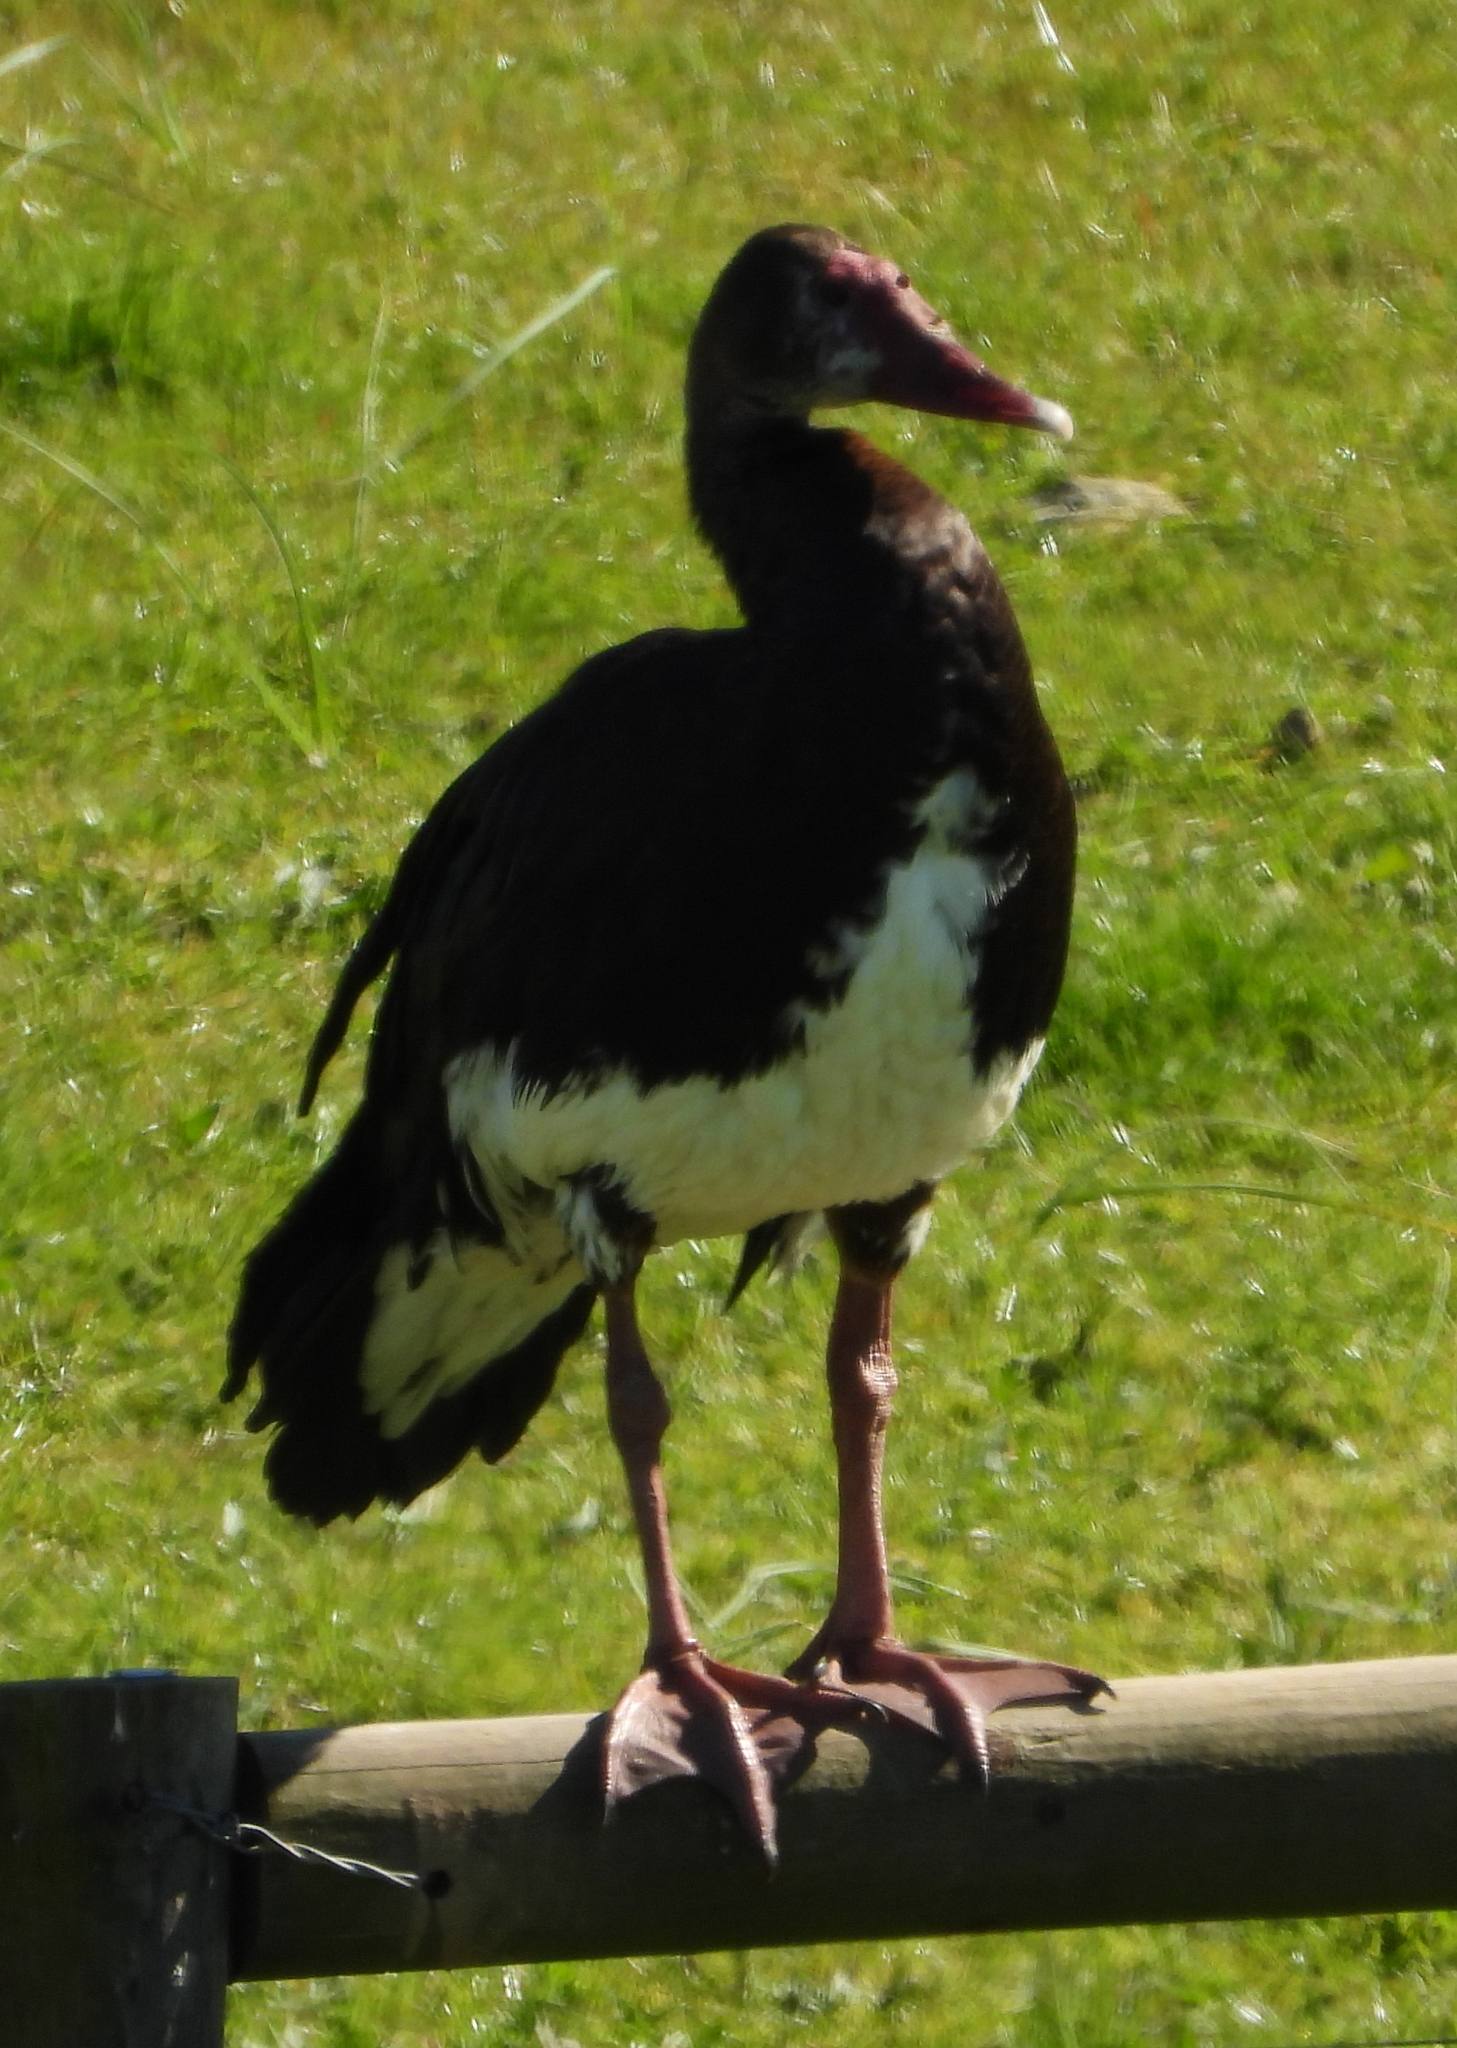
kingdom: Animalia
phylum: Chordata
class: Aves
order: Anseriformes
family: Anatidae
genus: Plectropterus
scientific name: Plectropterus gambensis
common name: Spur-winged goose
